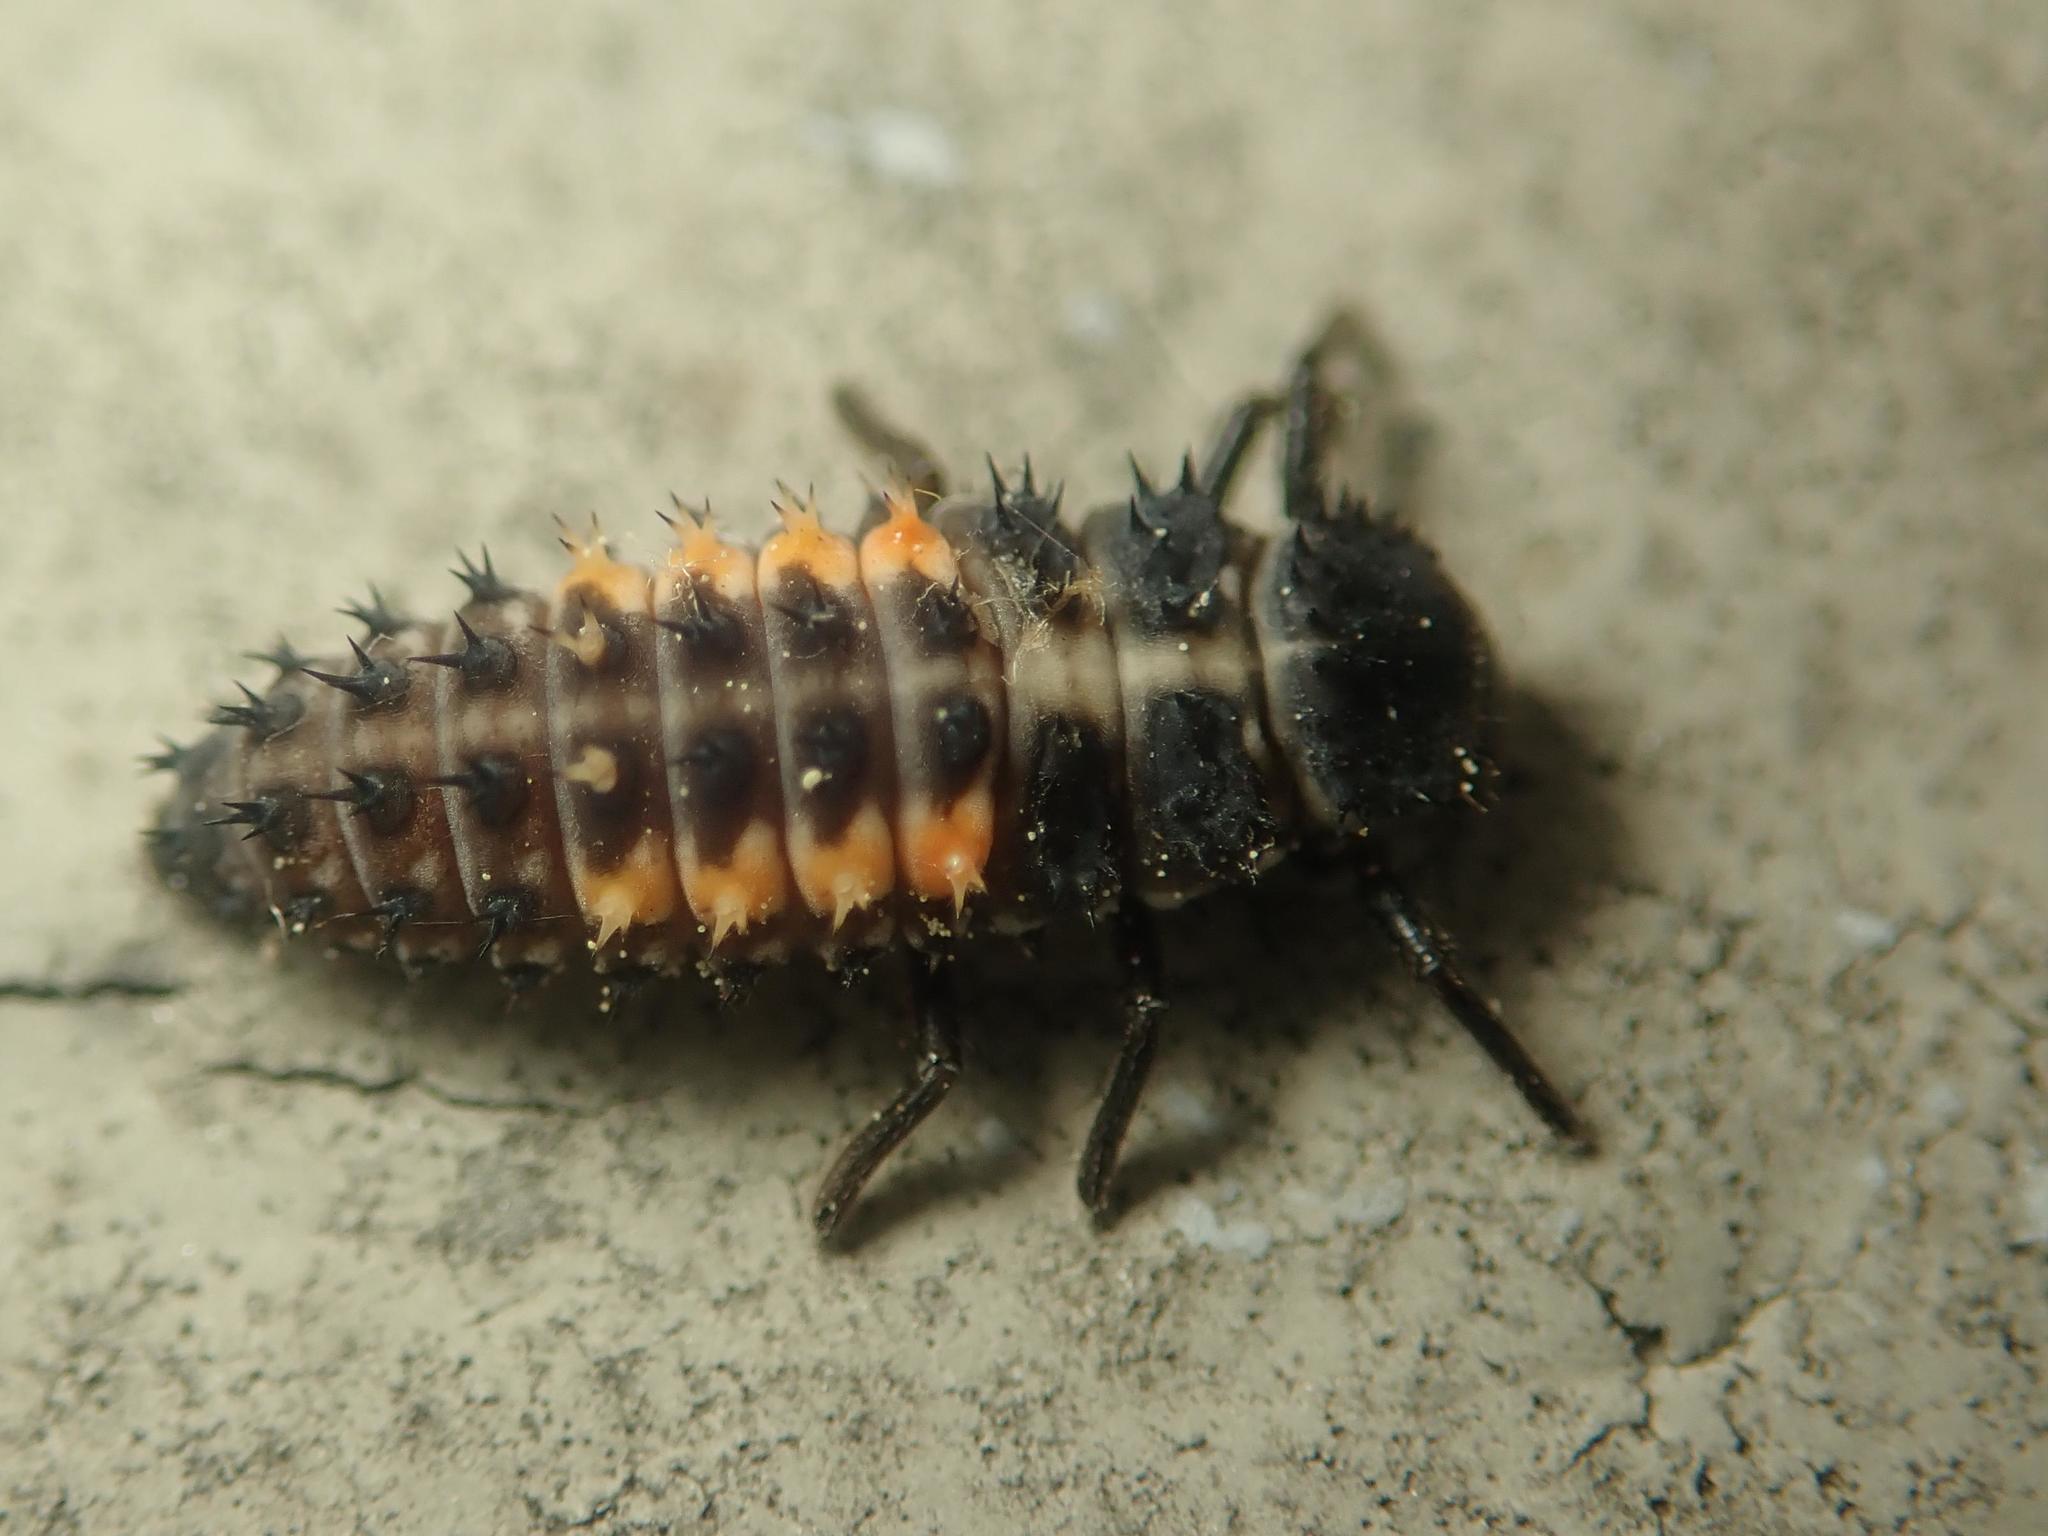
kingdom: Animalia
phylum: Arthropoda
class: Insecta
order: Coleoptera
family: Coccinellidae
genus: Harmonia
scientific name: Harmonia quadripunctata
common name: Cream-streaked ladybird
